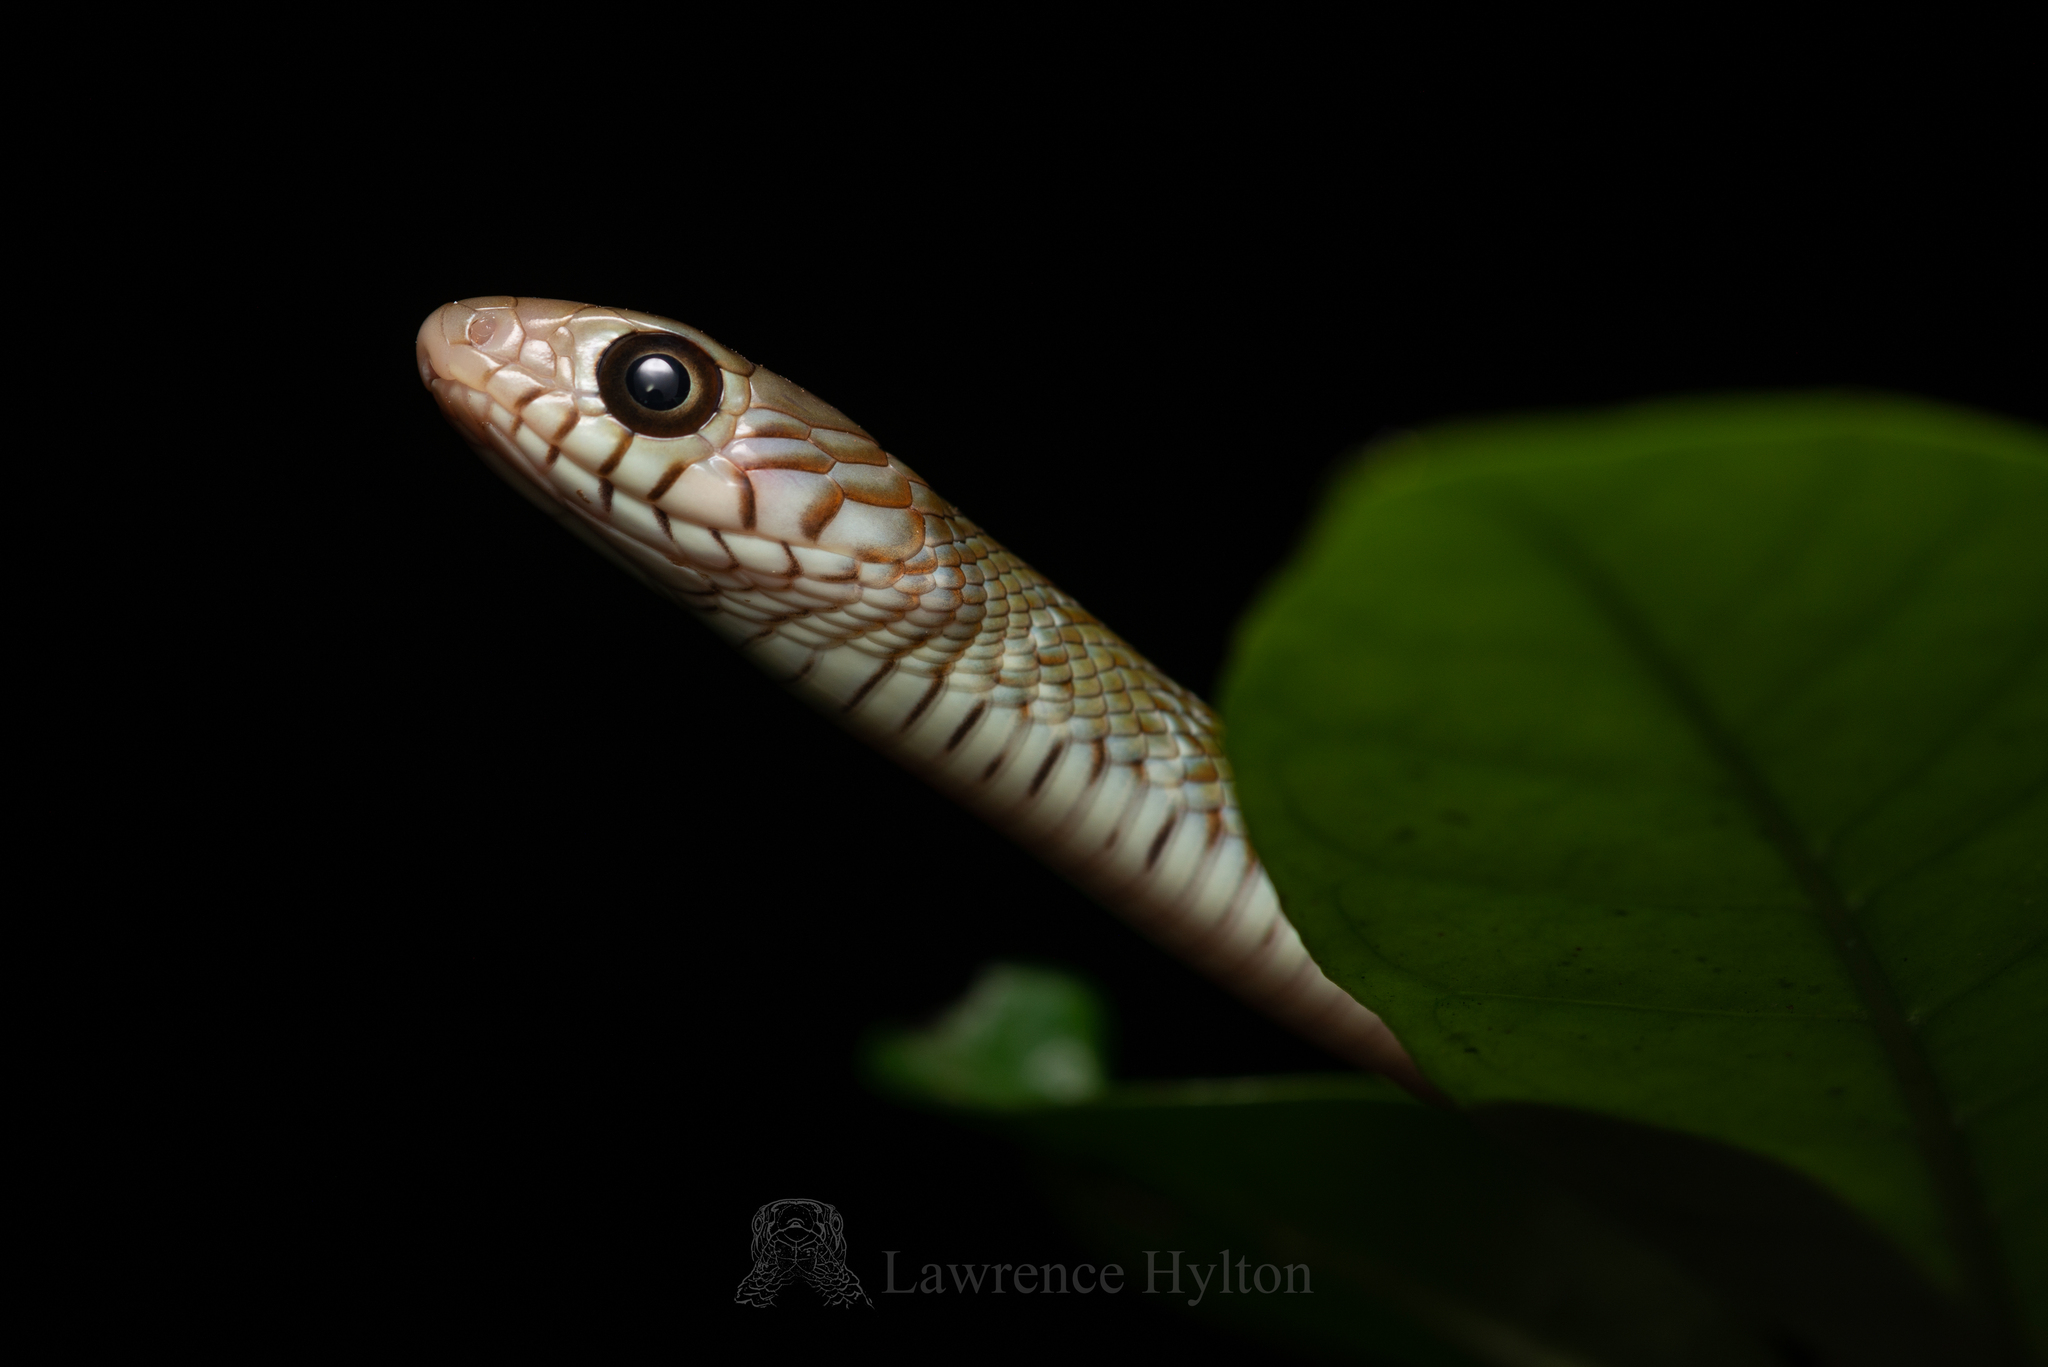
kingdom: Animalia
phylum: Chordata
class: Squamata
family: Colubridae
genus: Ptyas
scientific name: Ptyas mucosa
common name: Oriental ratsnake
